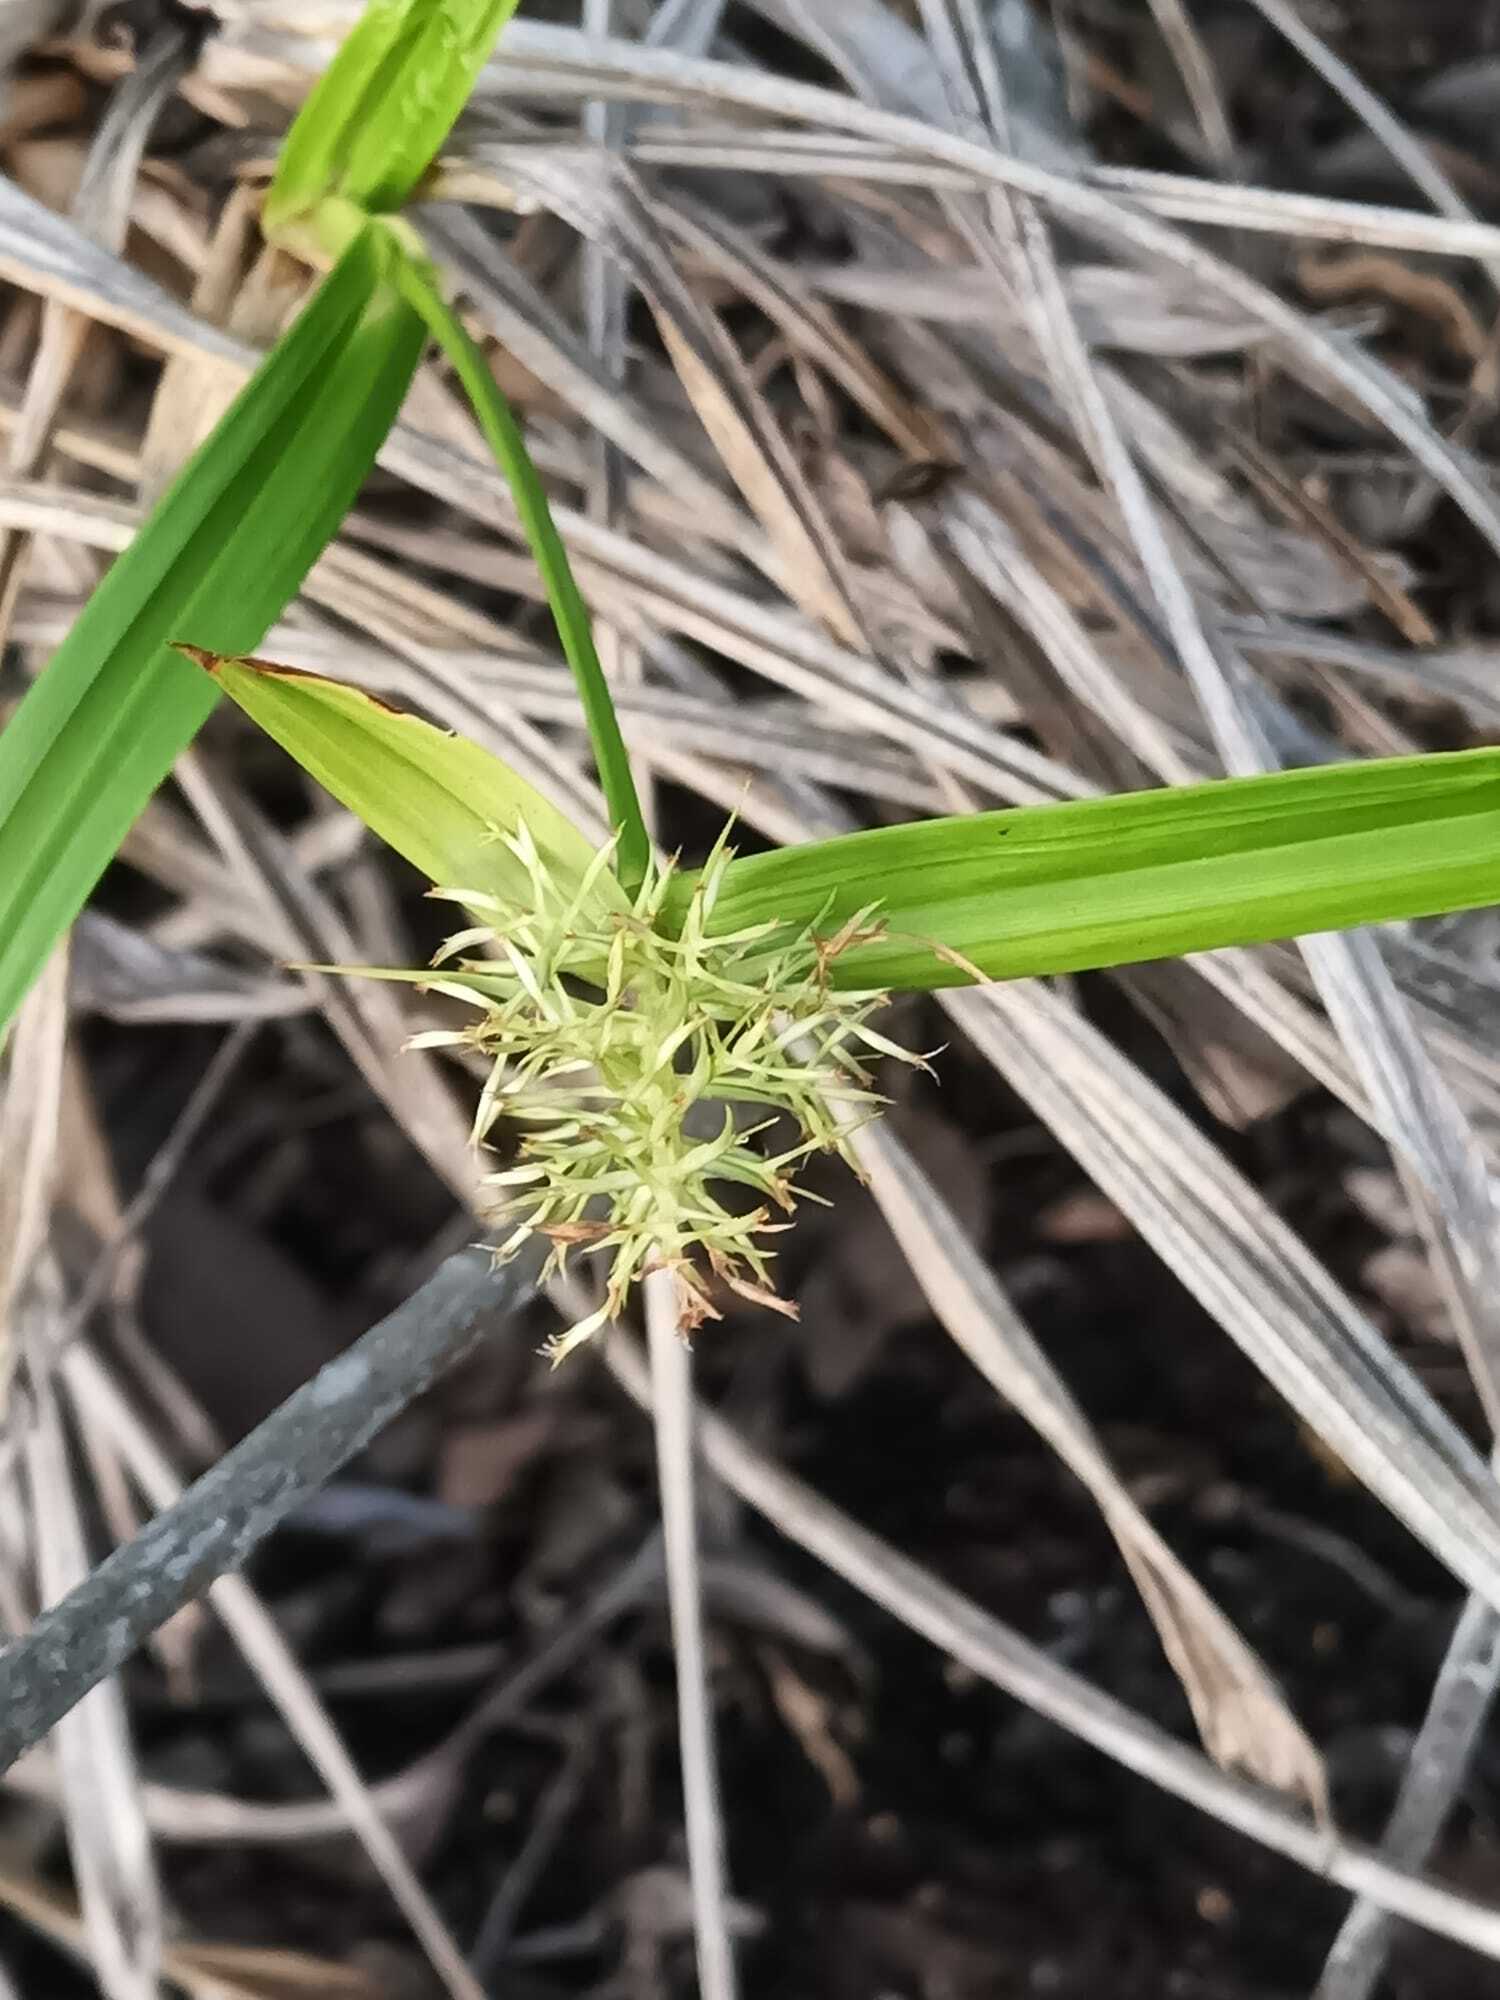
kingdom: Plantae
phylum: Tracheophyta
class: Liliopsida
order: Poales
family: Cyperaceae
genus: Scleria
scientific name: Scleria cyperina
